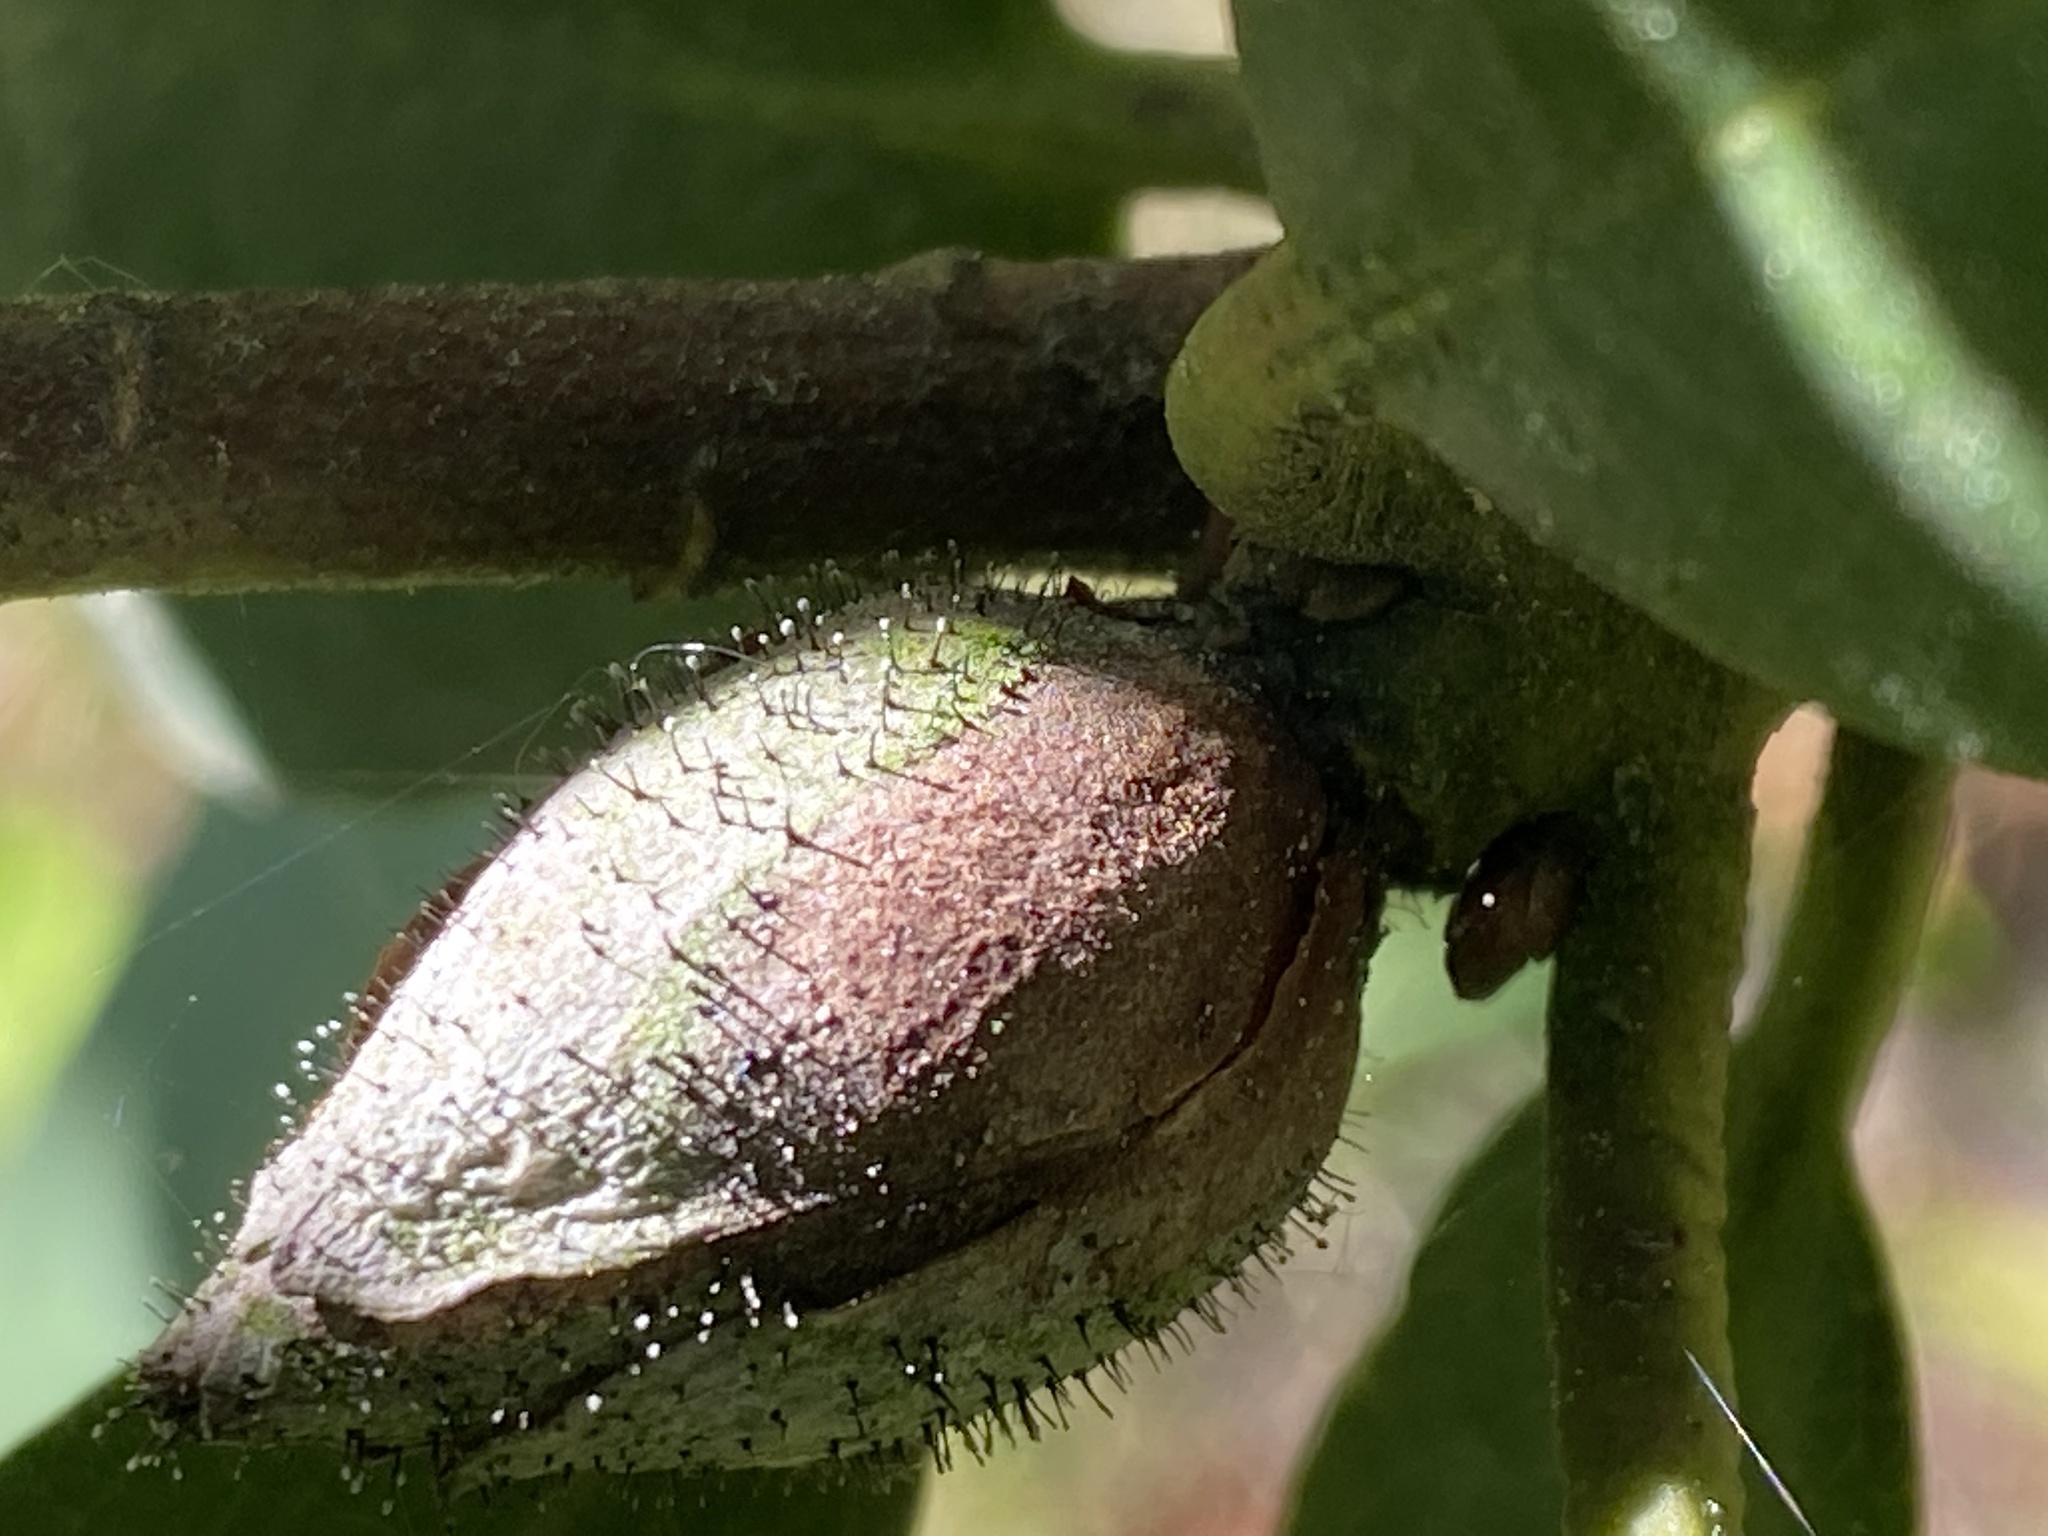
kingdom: Fungi
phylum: Ascomycota
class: Dothideomycetes
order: Pleosporales
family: Melanommataceae
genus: Seifertia
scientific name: Seifertia azaleae
